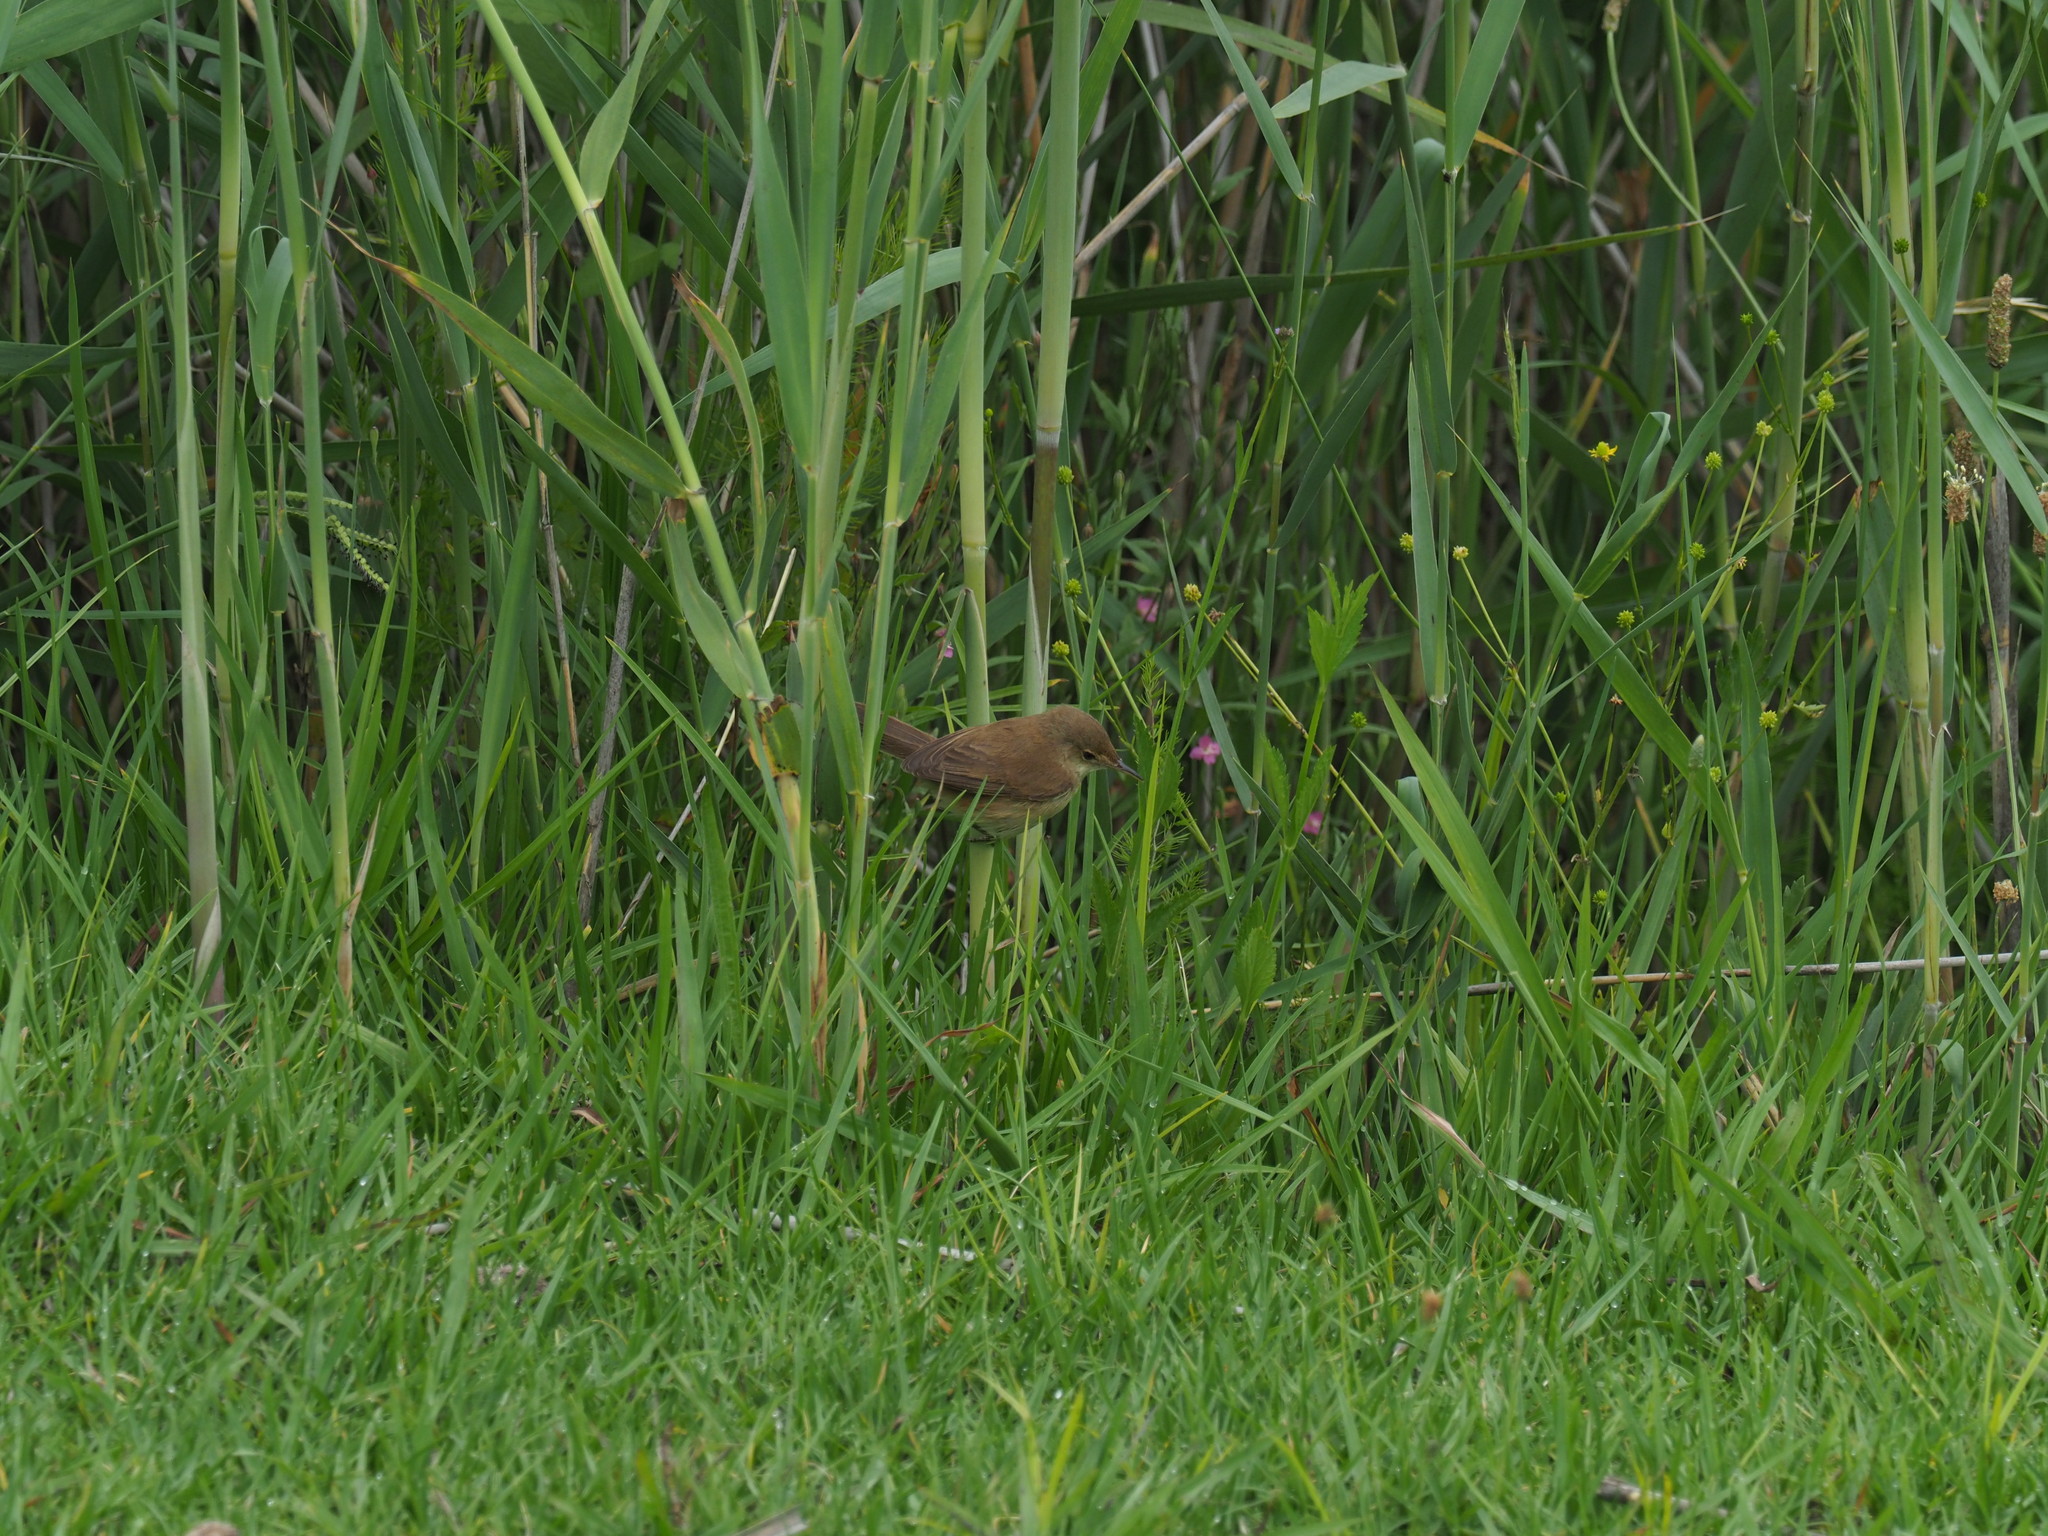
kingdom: Animalia
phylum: Chordata
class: Aves
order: Passeriformes
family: Acrocephalidae
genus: Acrocephalus
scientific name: Acrocephalus scirpaceus
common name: Eurasian reed warbler
